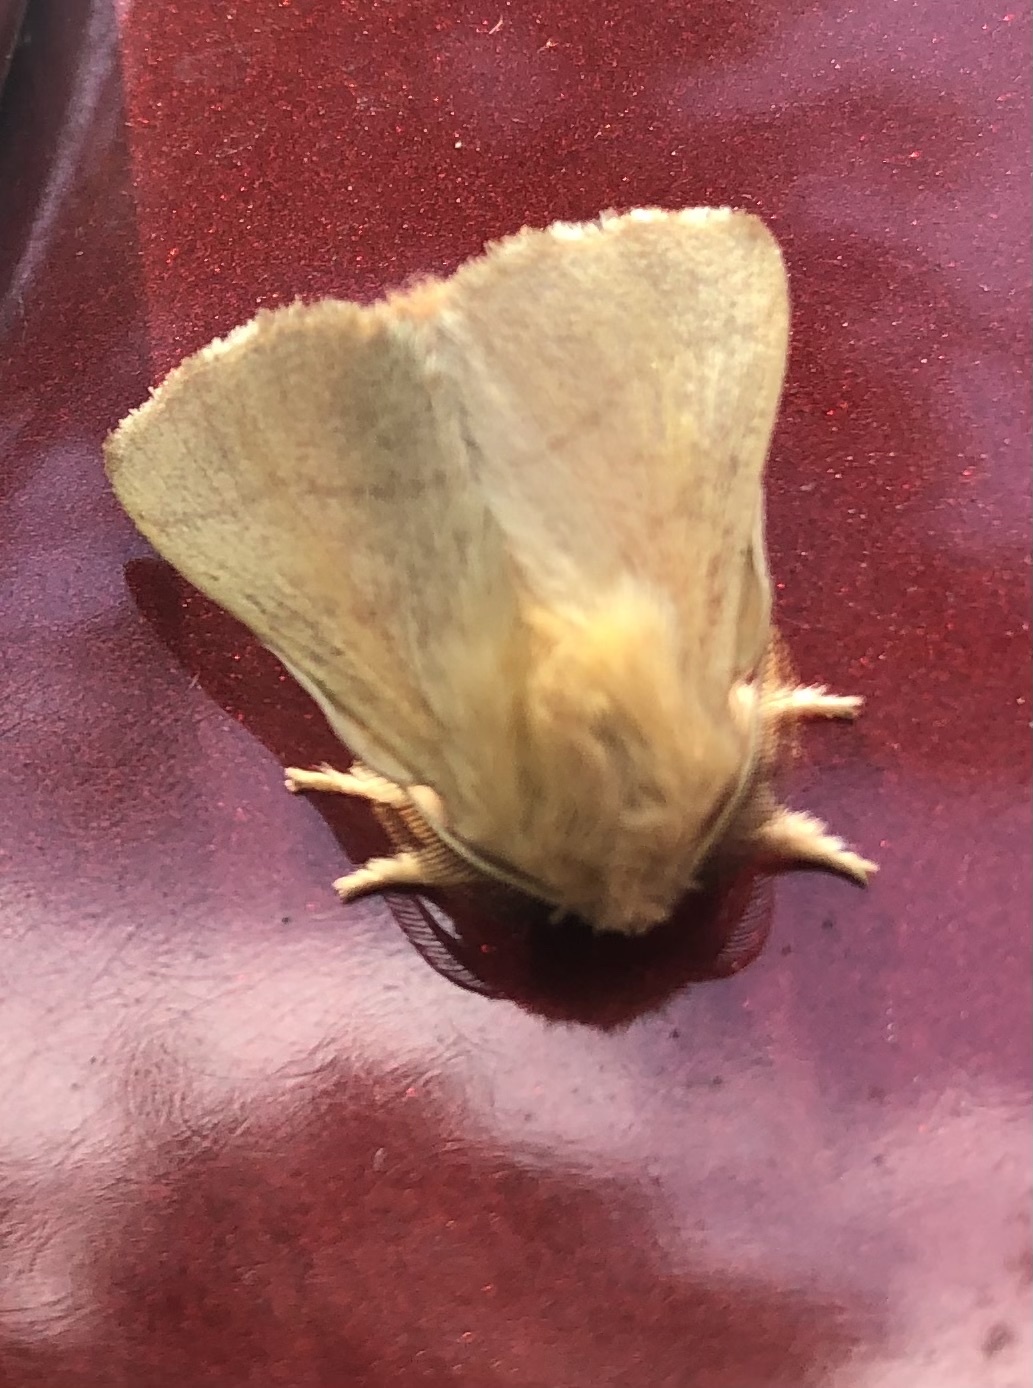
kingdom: Animalia
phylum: Arthropoda
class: Insecta
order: Lepidoptera
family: Lasiocampidae
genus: Malacosoma
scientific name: Malacosoma disstria
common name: Forest tent caterpillar
